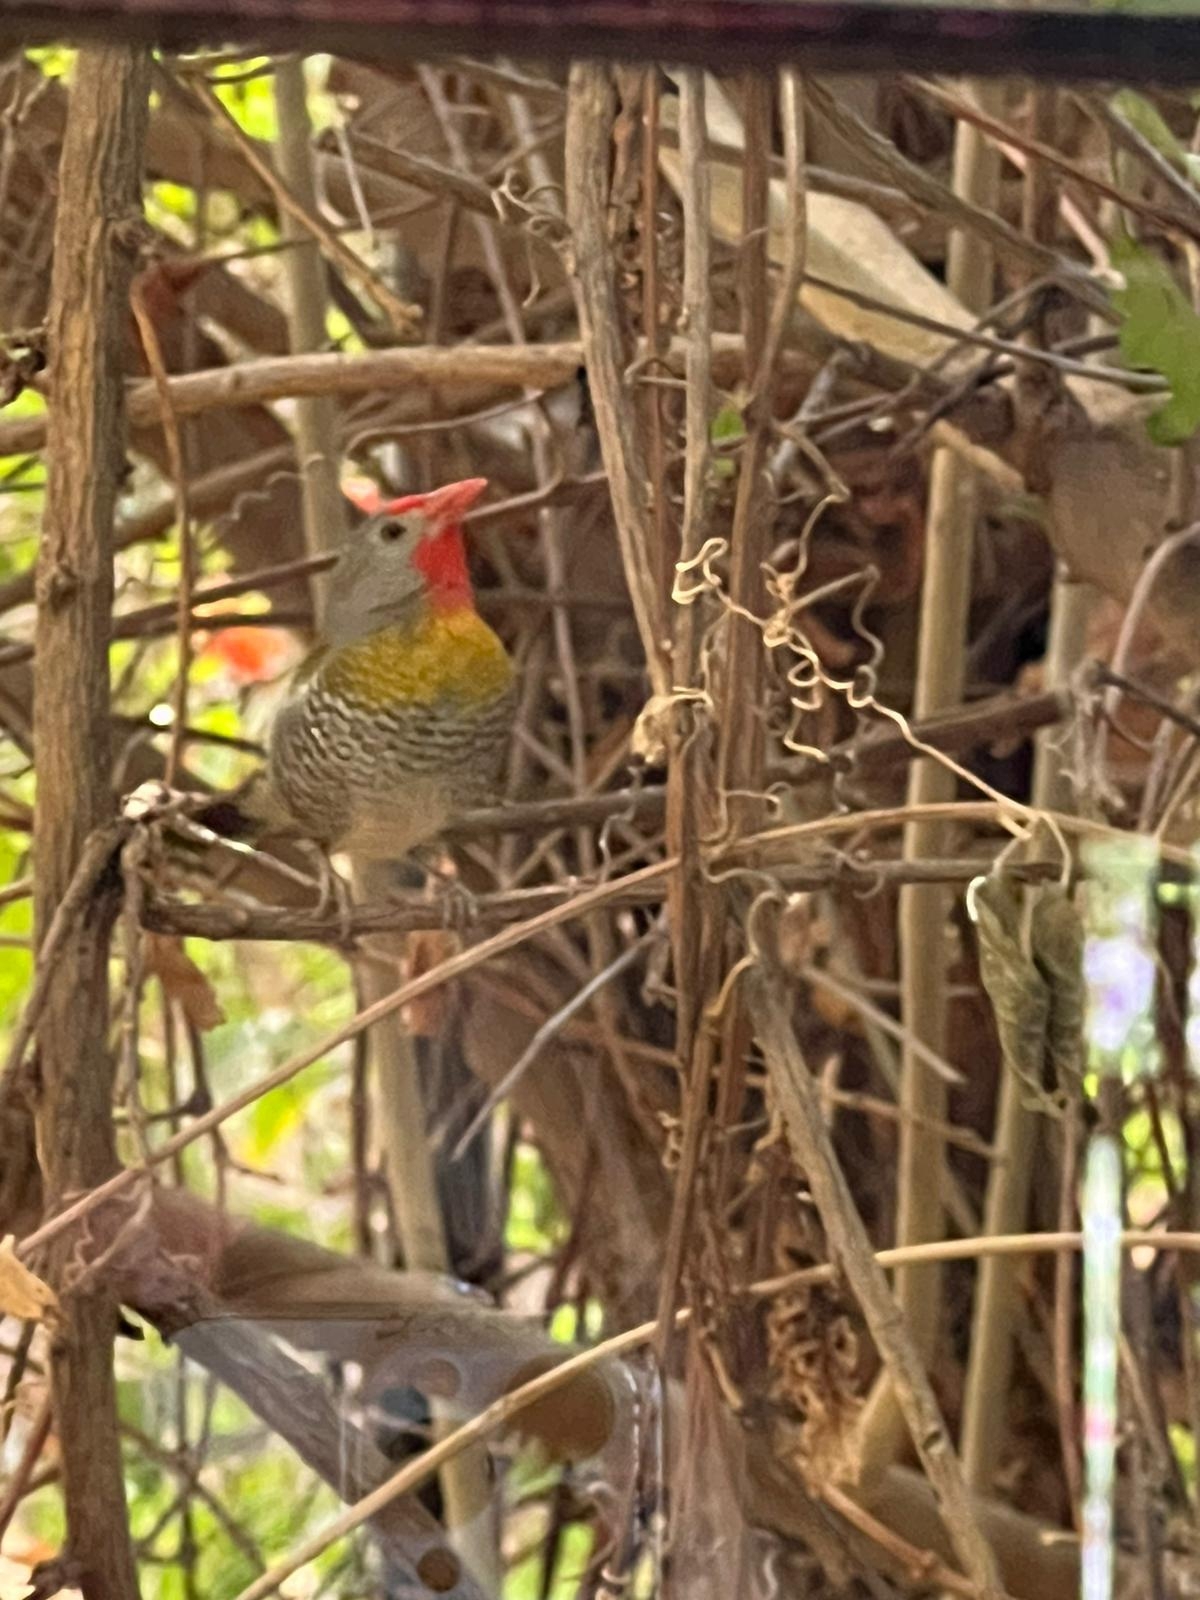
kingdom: Animalia
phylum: Chordata
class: Aves
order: Passeriformes
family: Estrildidae
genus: Pytilia
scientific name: Pytilia melba
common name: Green-winged pytilia
